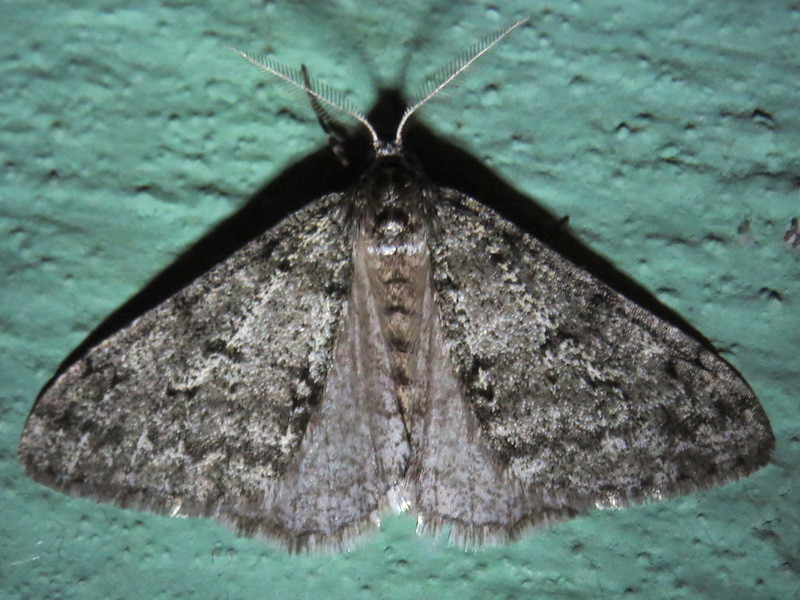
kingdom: Animalia
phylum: Arthropoda
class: Insecta
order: Lepidoptera
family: Geometridae
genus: Phigalia
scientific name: Phigalia strigataria
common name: Small phigalia
